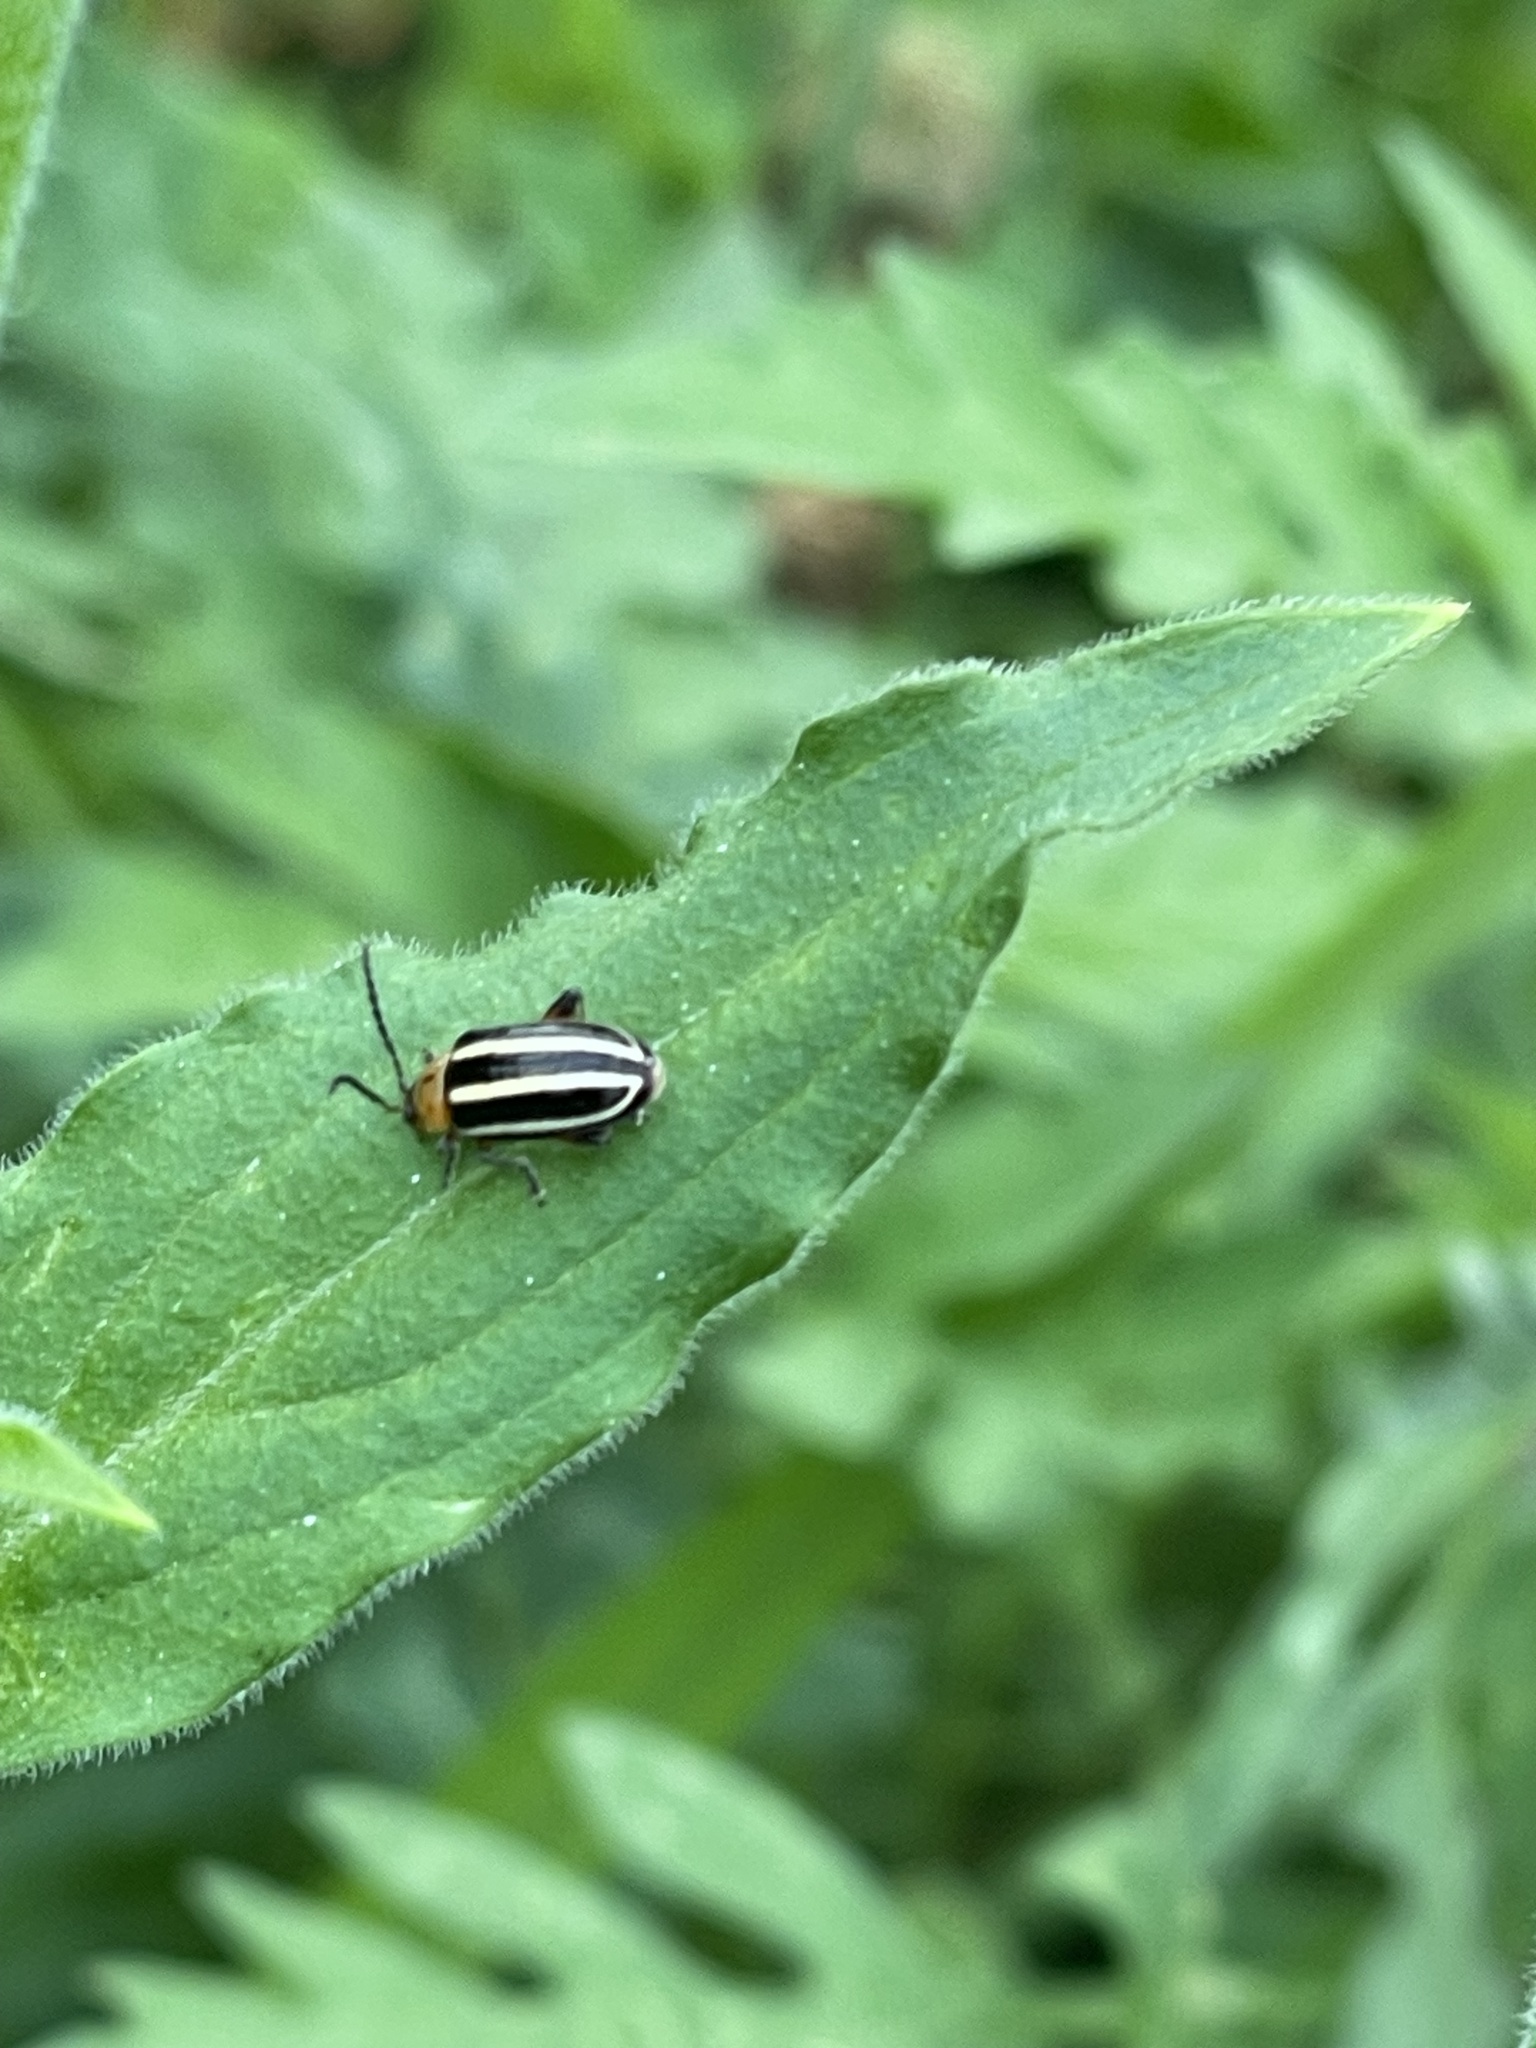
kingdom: Animalia
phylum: Arthropoda
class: Insecta
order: Coleoptera
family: Chrysomelidae
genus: Disonycha
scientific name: Disonycha glabrata
